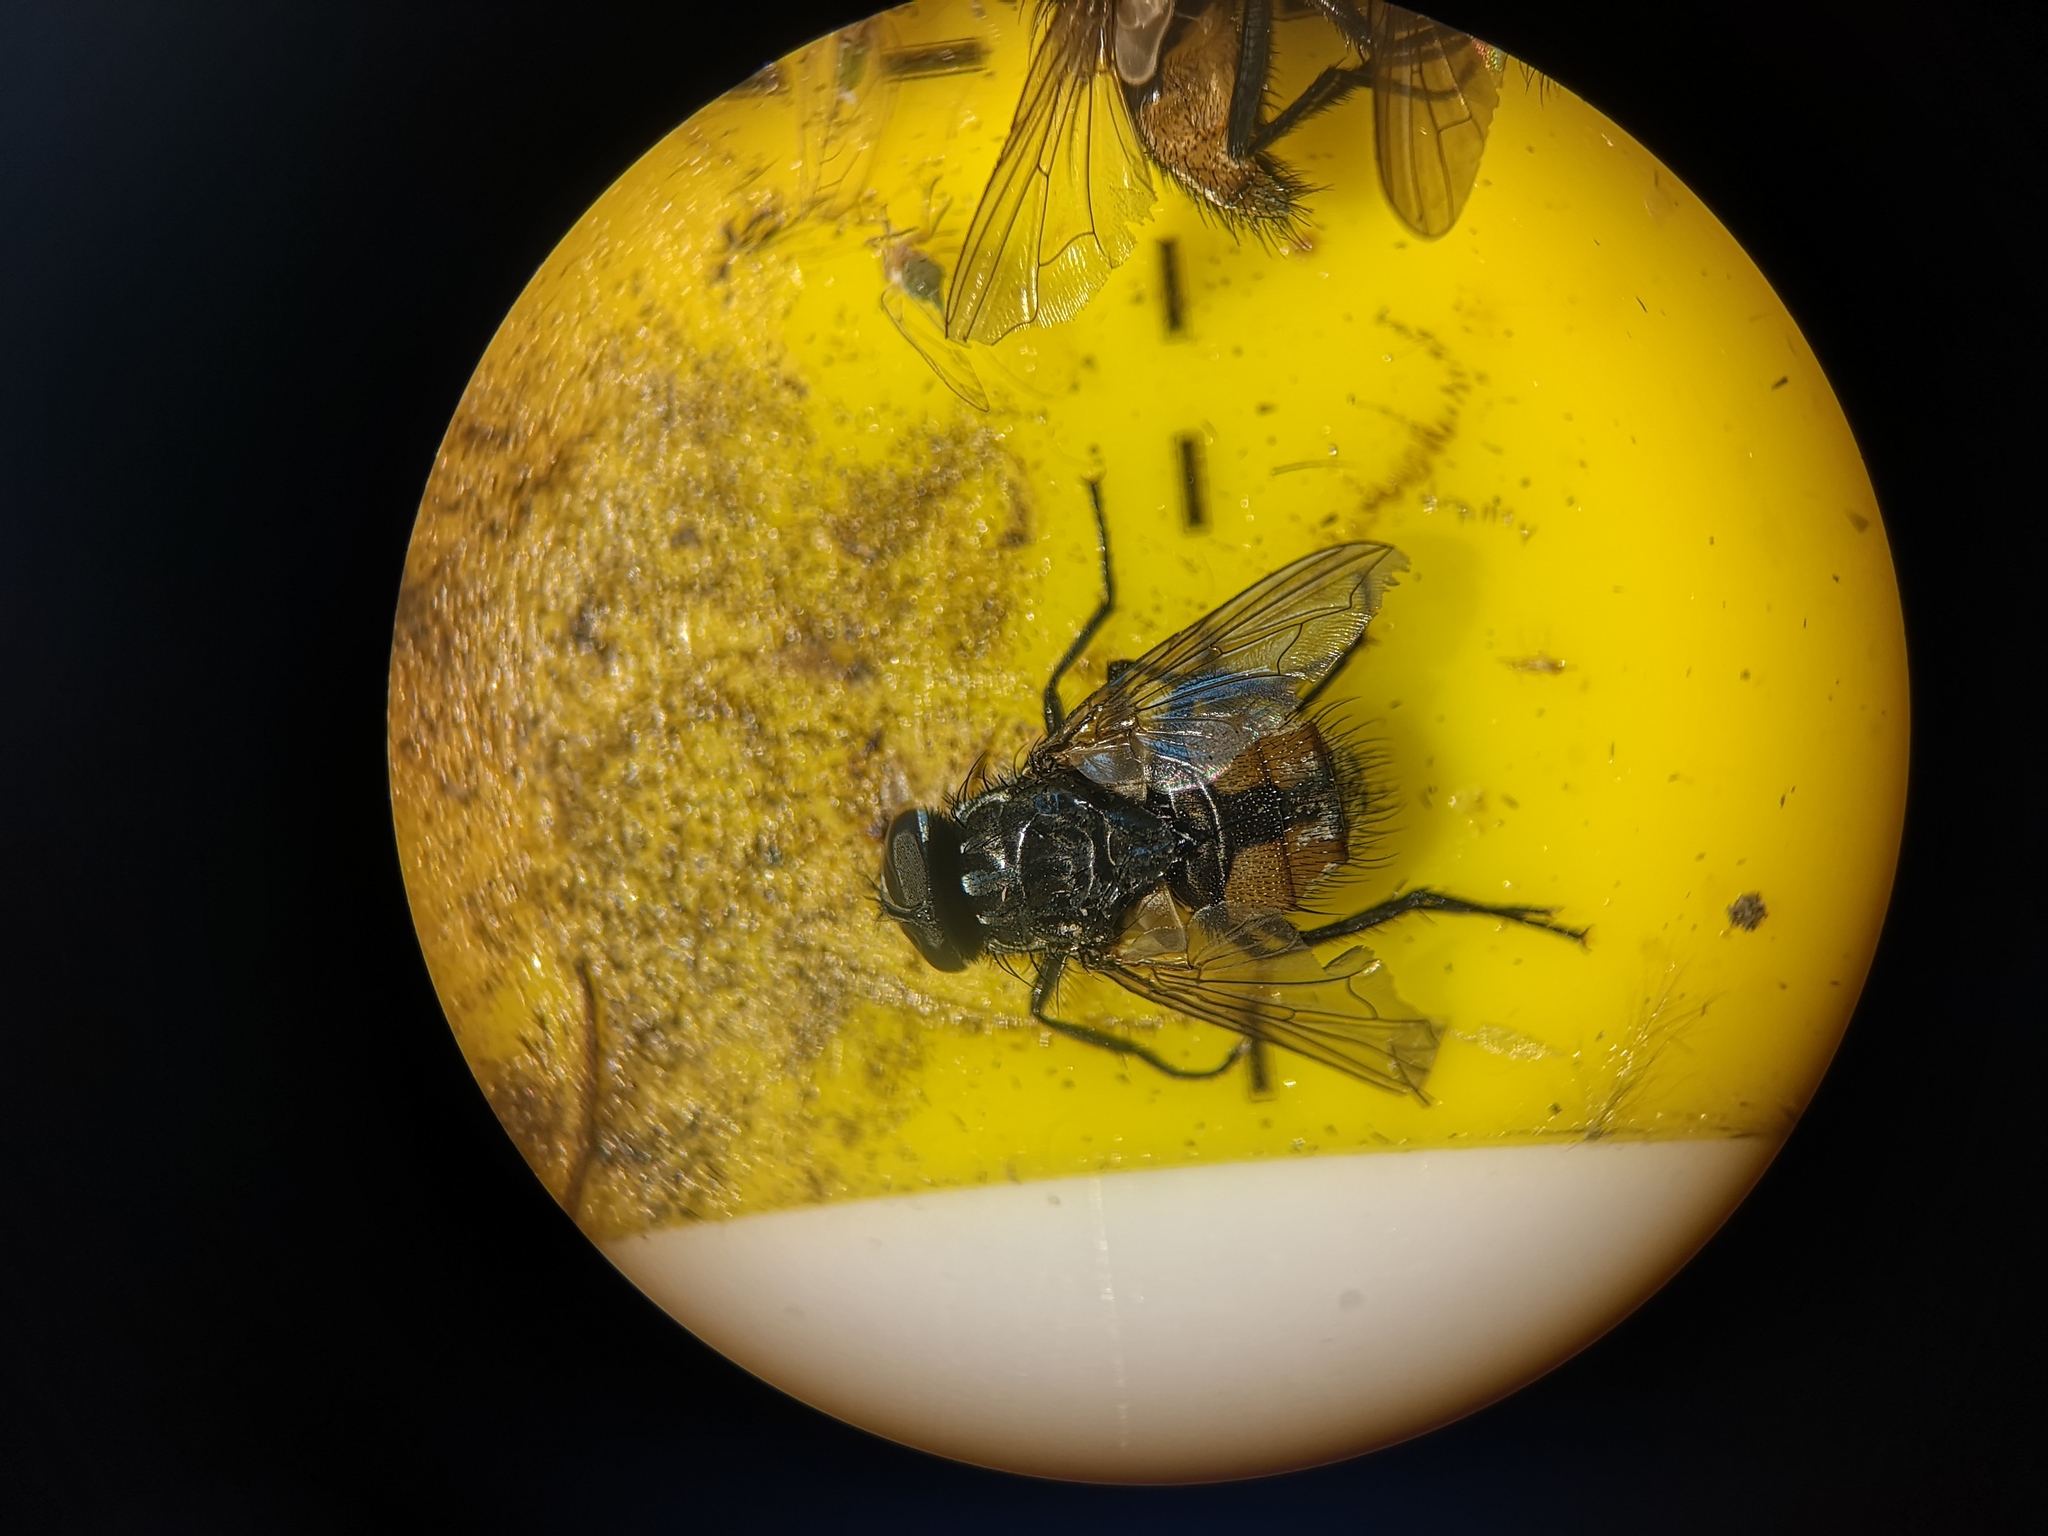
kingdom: Animalia
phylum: Arthropoda
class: Insecta
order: Diptera
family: Muscidae
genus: Musca
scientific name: Musca domestica
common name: House fly
